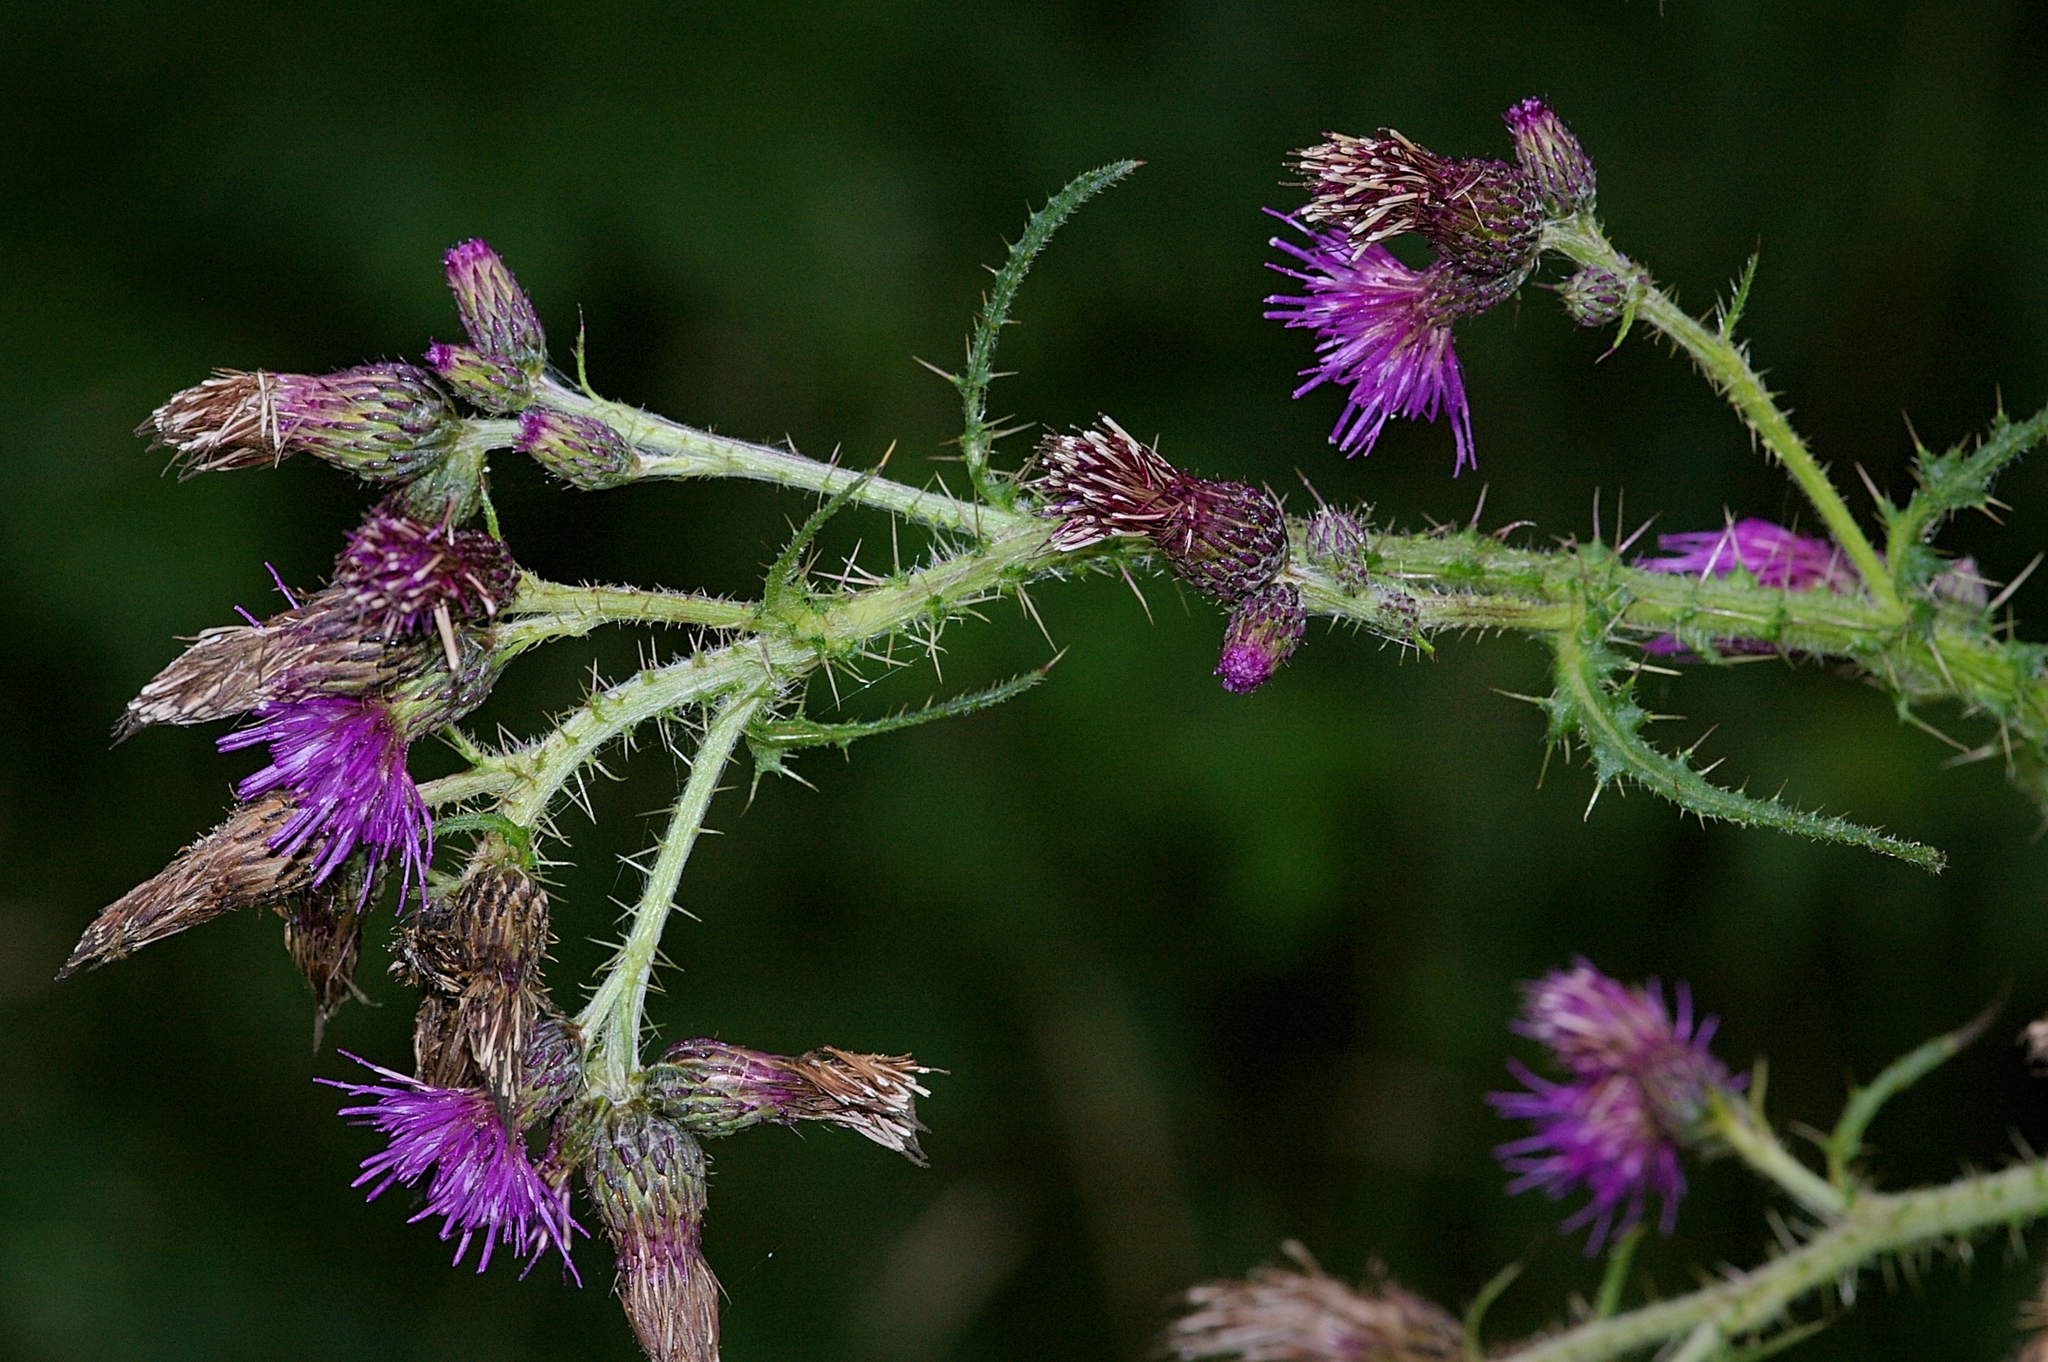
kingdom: Plantae
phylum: Tracheophyta
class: Magnoliopsida
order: Asterales
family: Asteraceae
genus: Cirsium
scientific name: Cirsium palustre
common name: Marsh thistle
